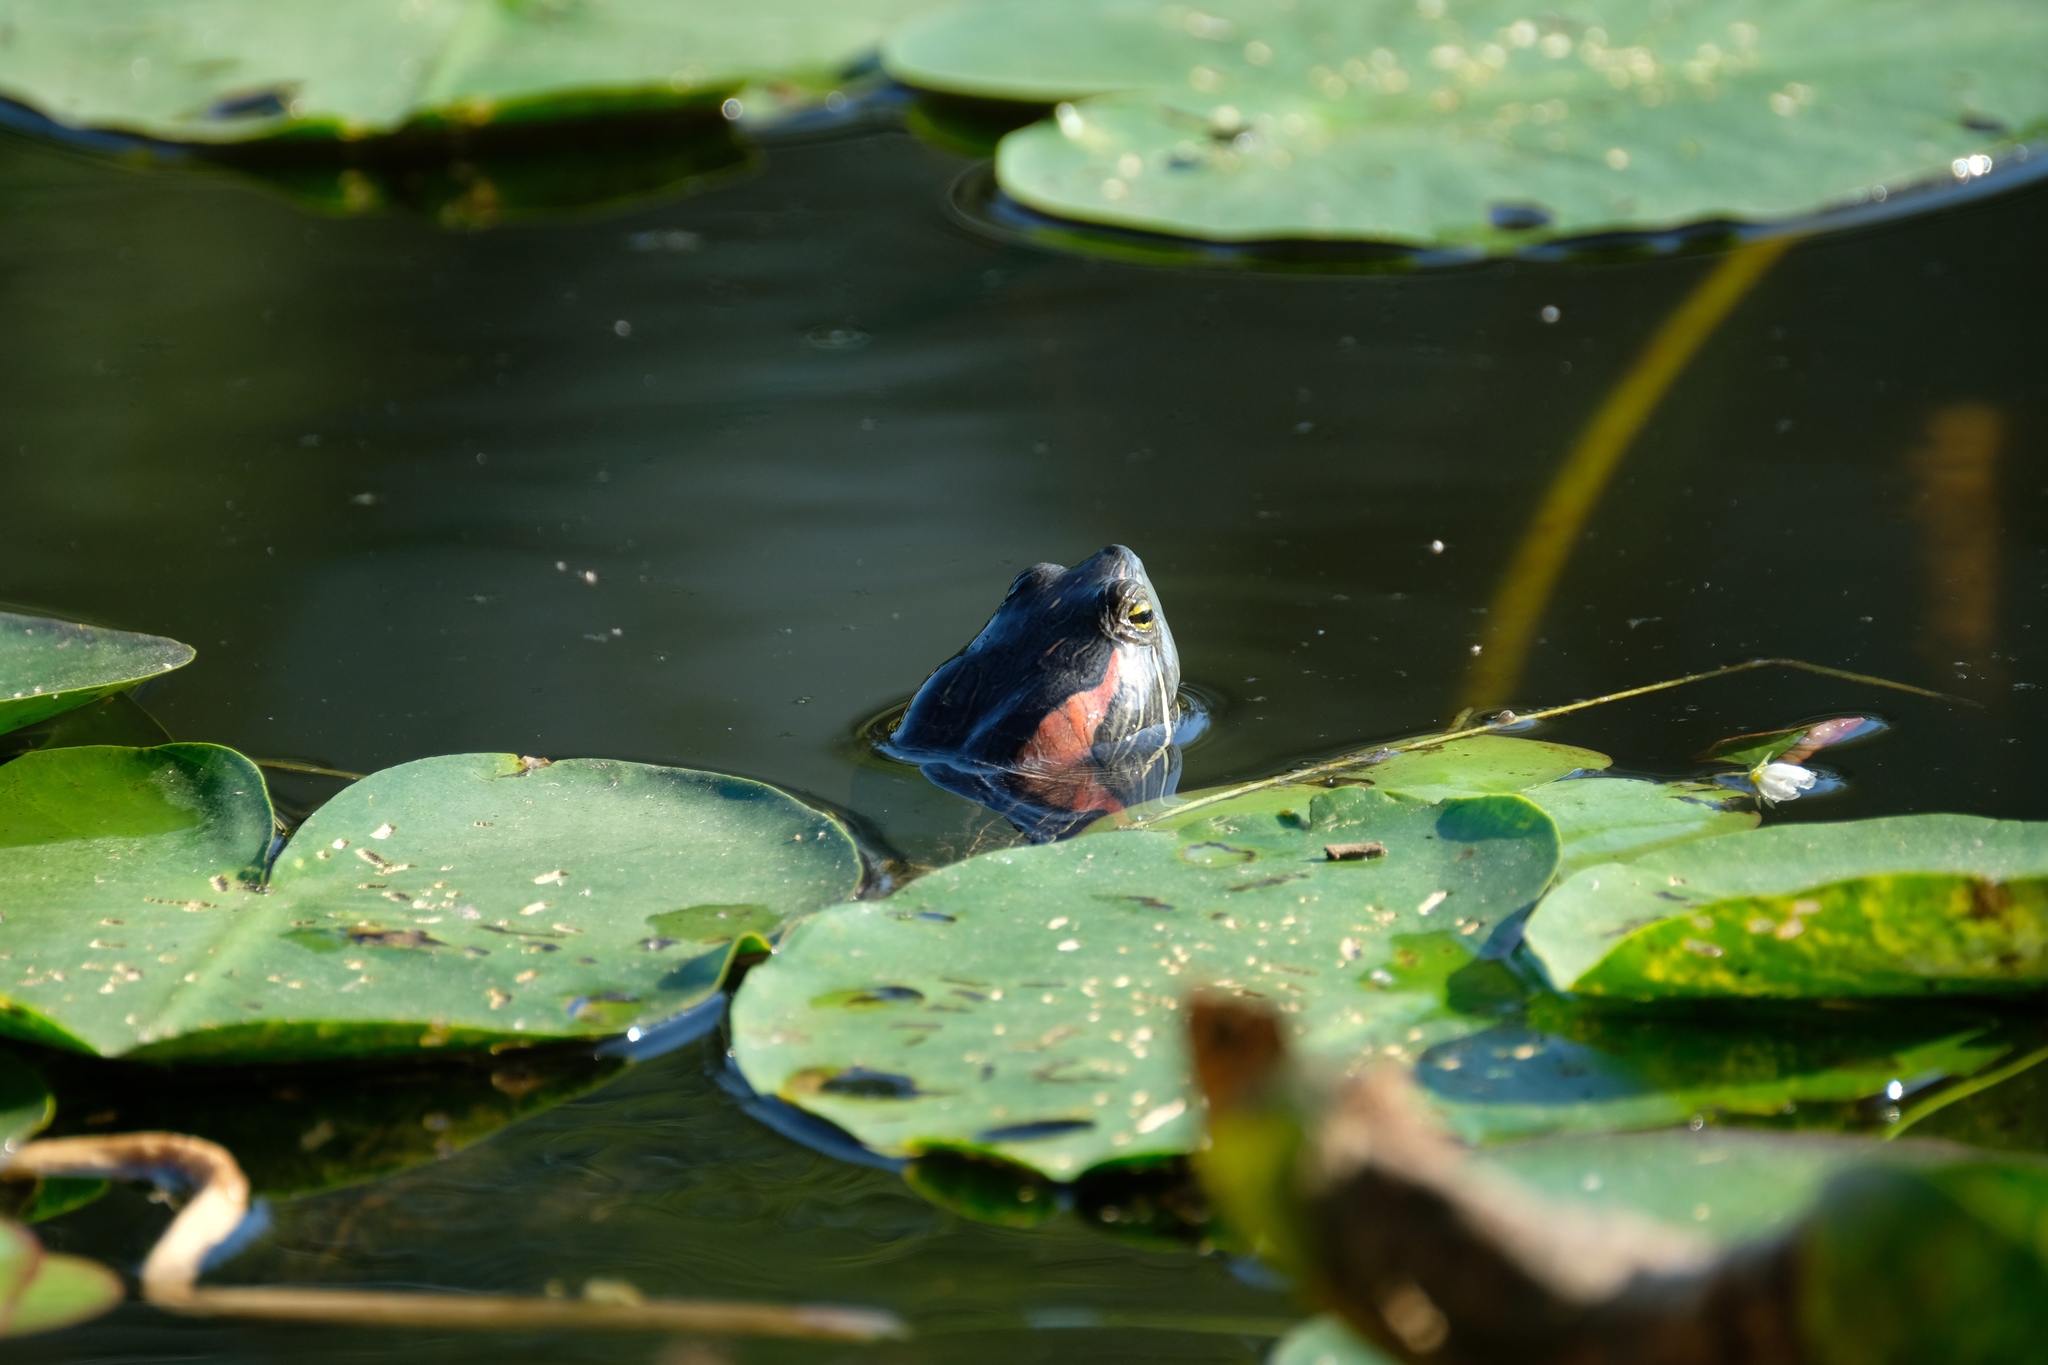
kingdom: Animalia
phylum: Chordata
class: Testudines
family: Emydidae
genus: Trachemys
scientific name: Trachemys scripta
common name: Slider
